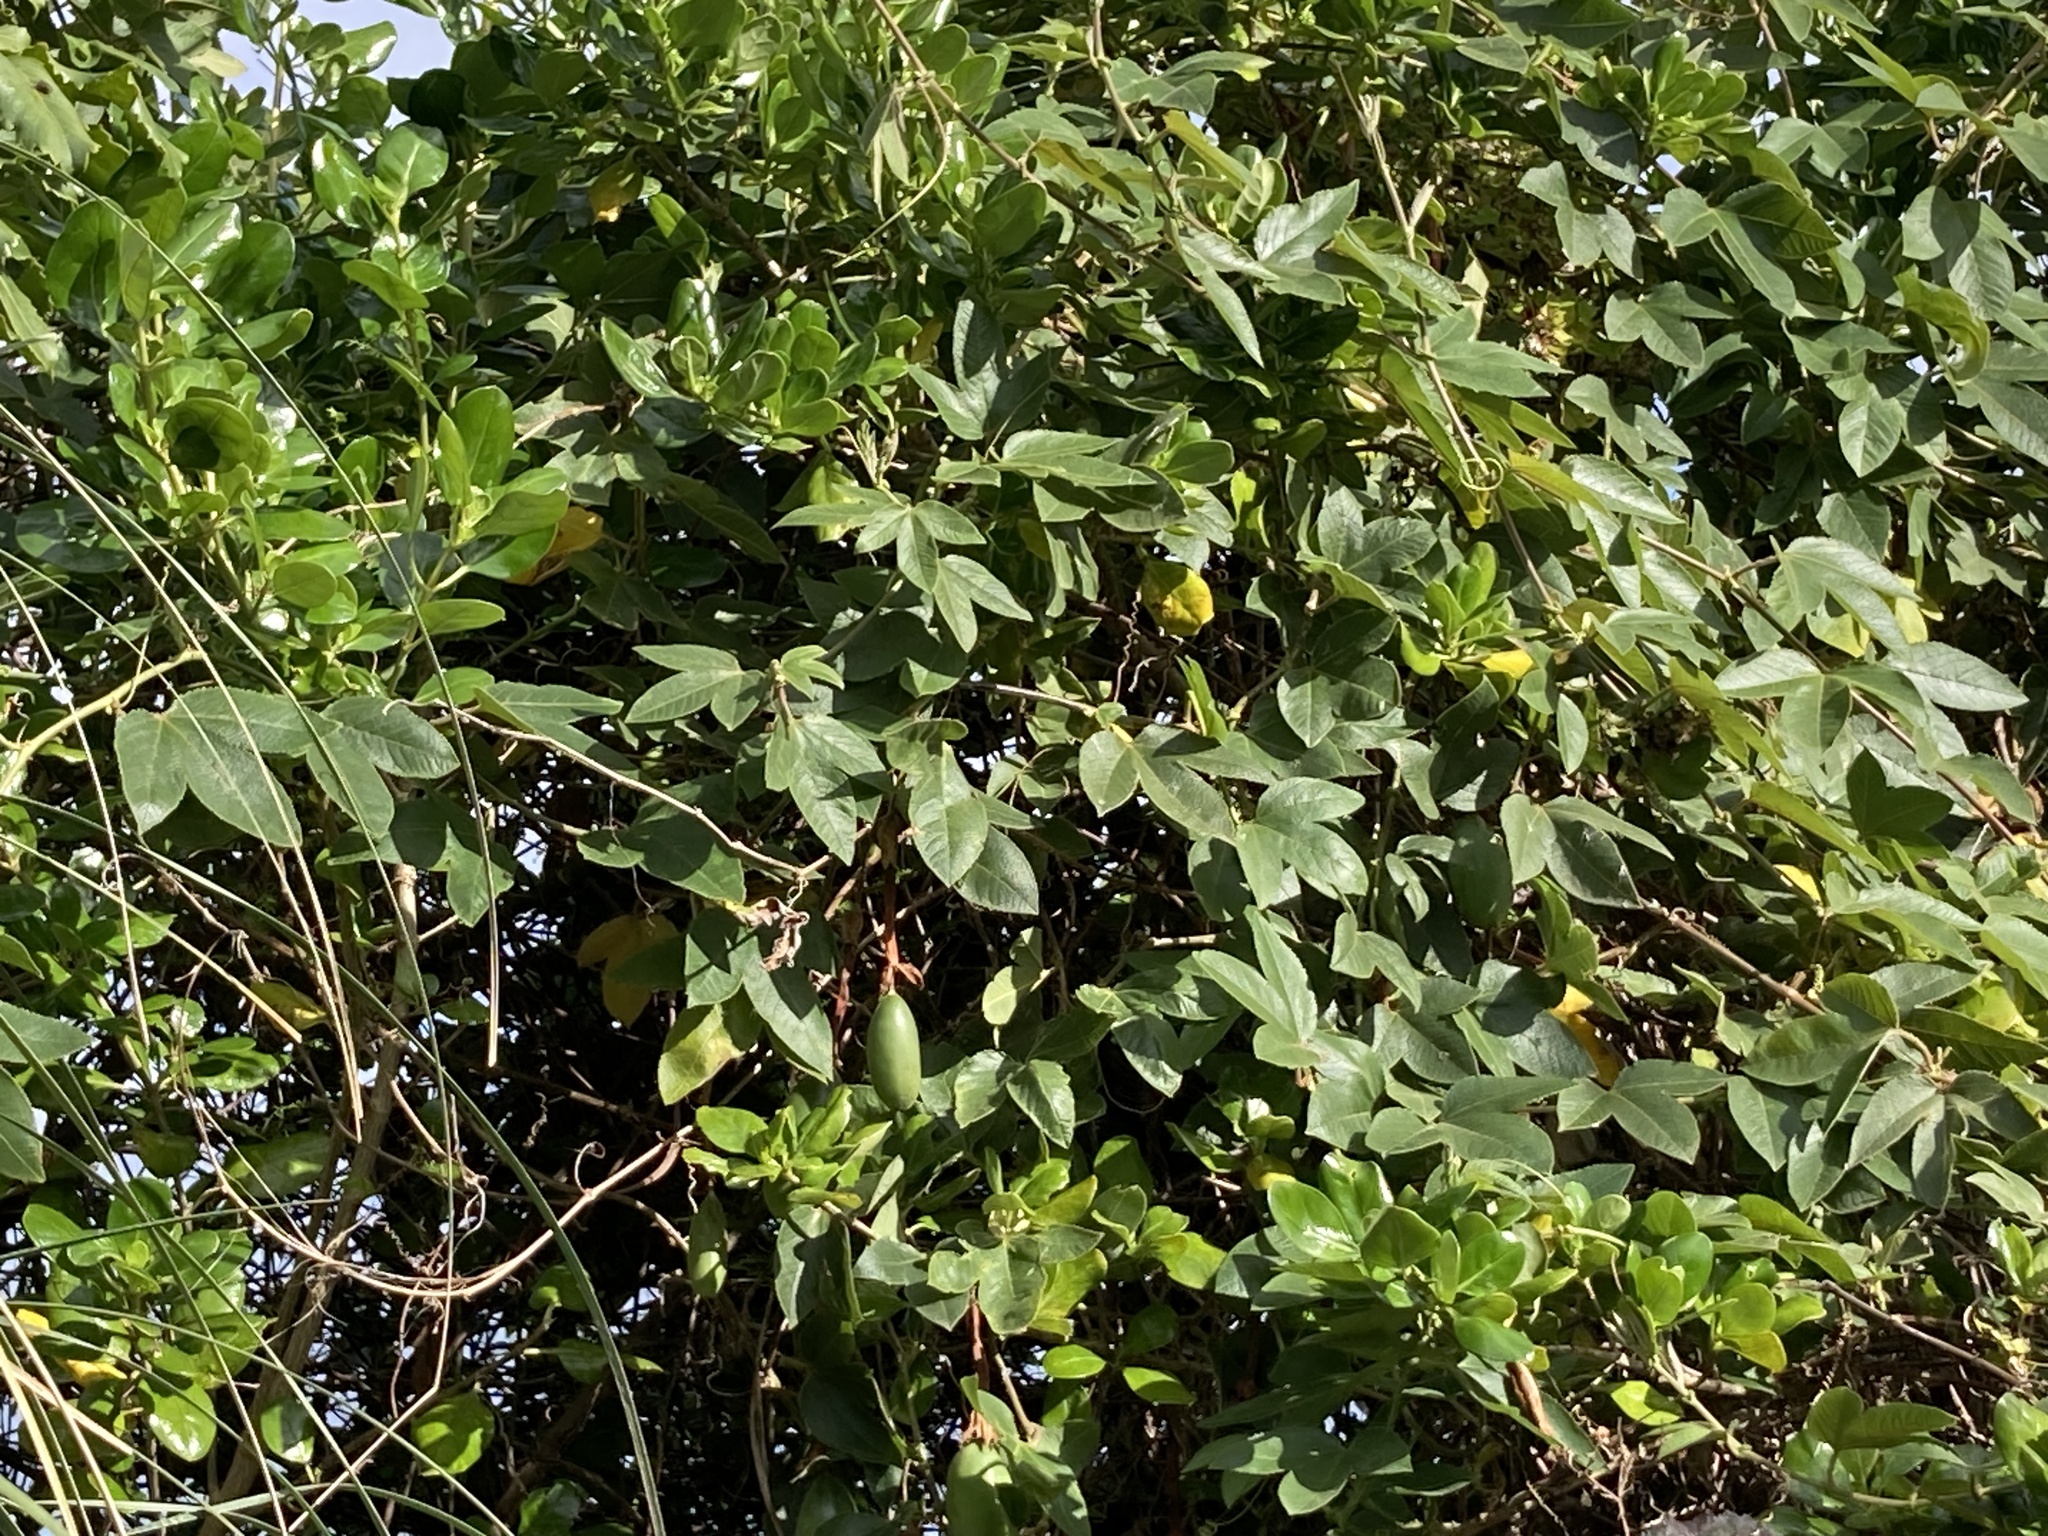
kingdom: Plantae
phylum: Tracheophyta
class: Magnoliopsida
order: Malpighiales
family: Passifloraceae
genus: Passiflora
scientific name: Passiflora tripartita
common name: Banana poka
